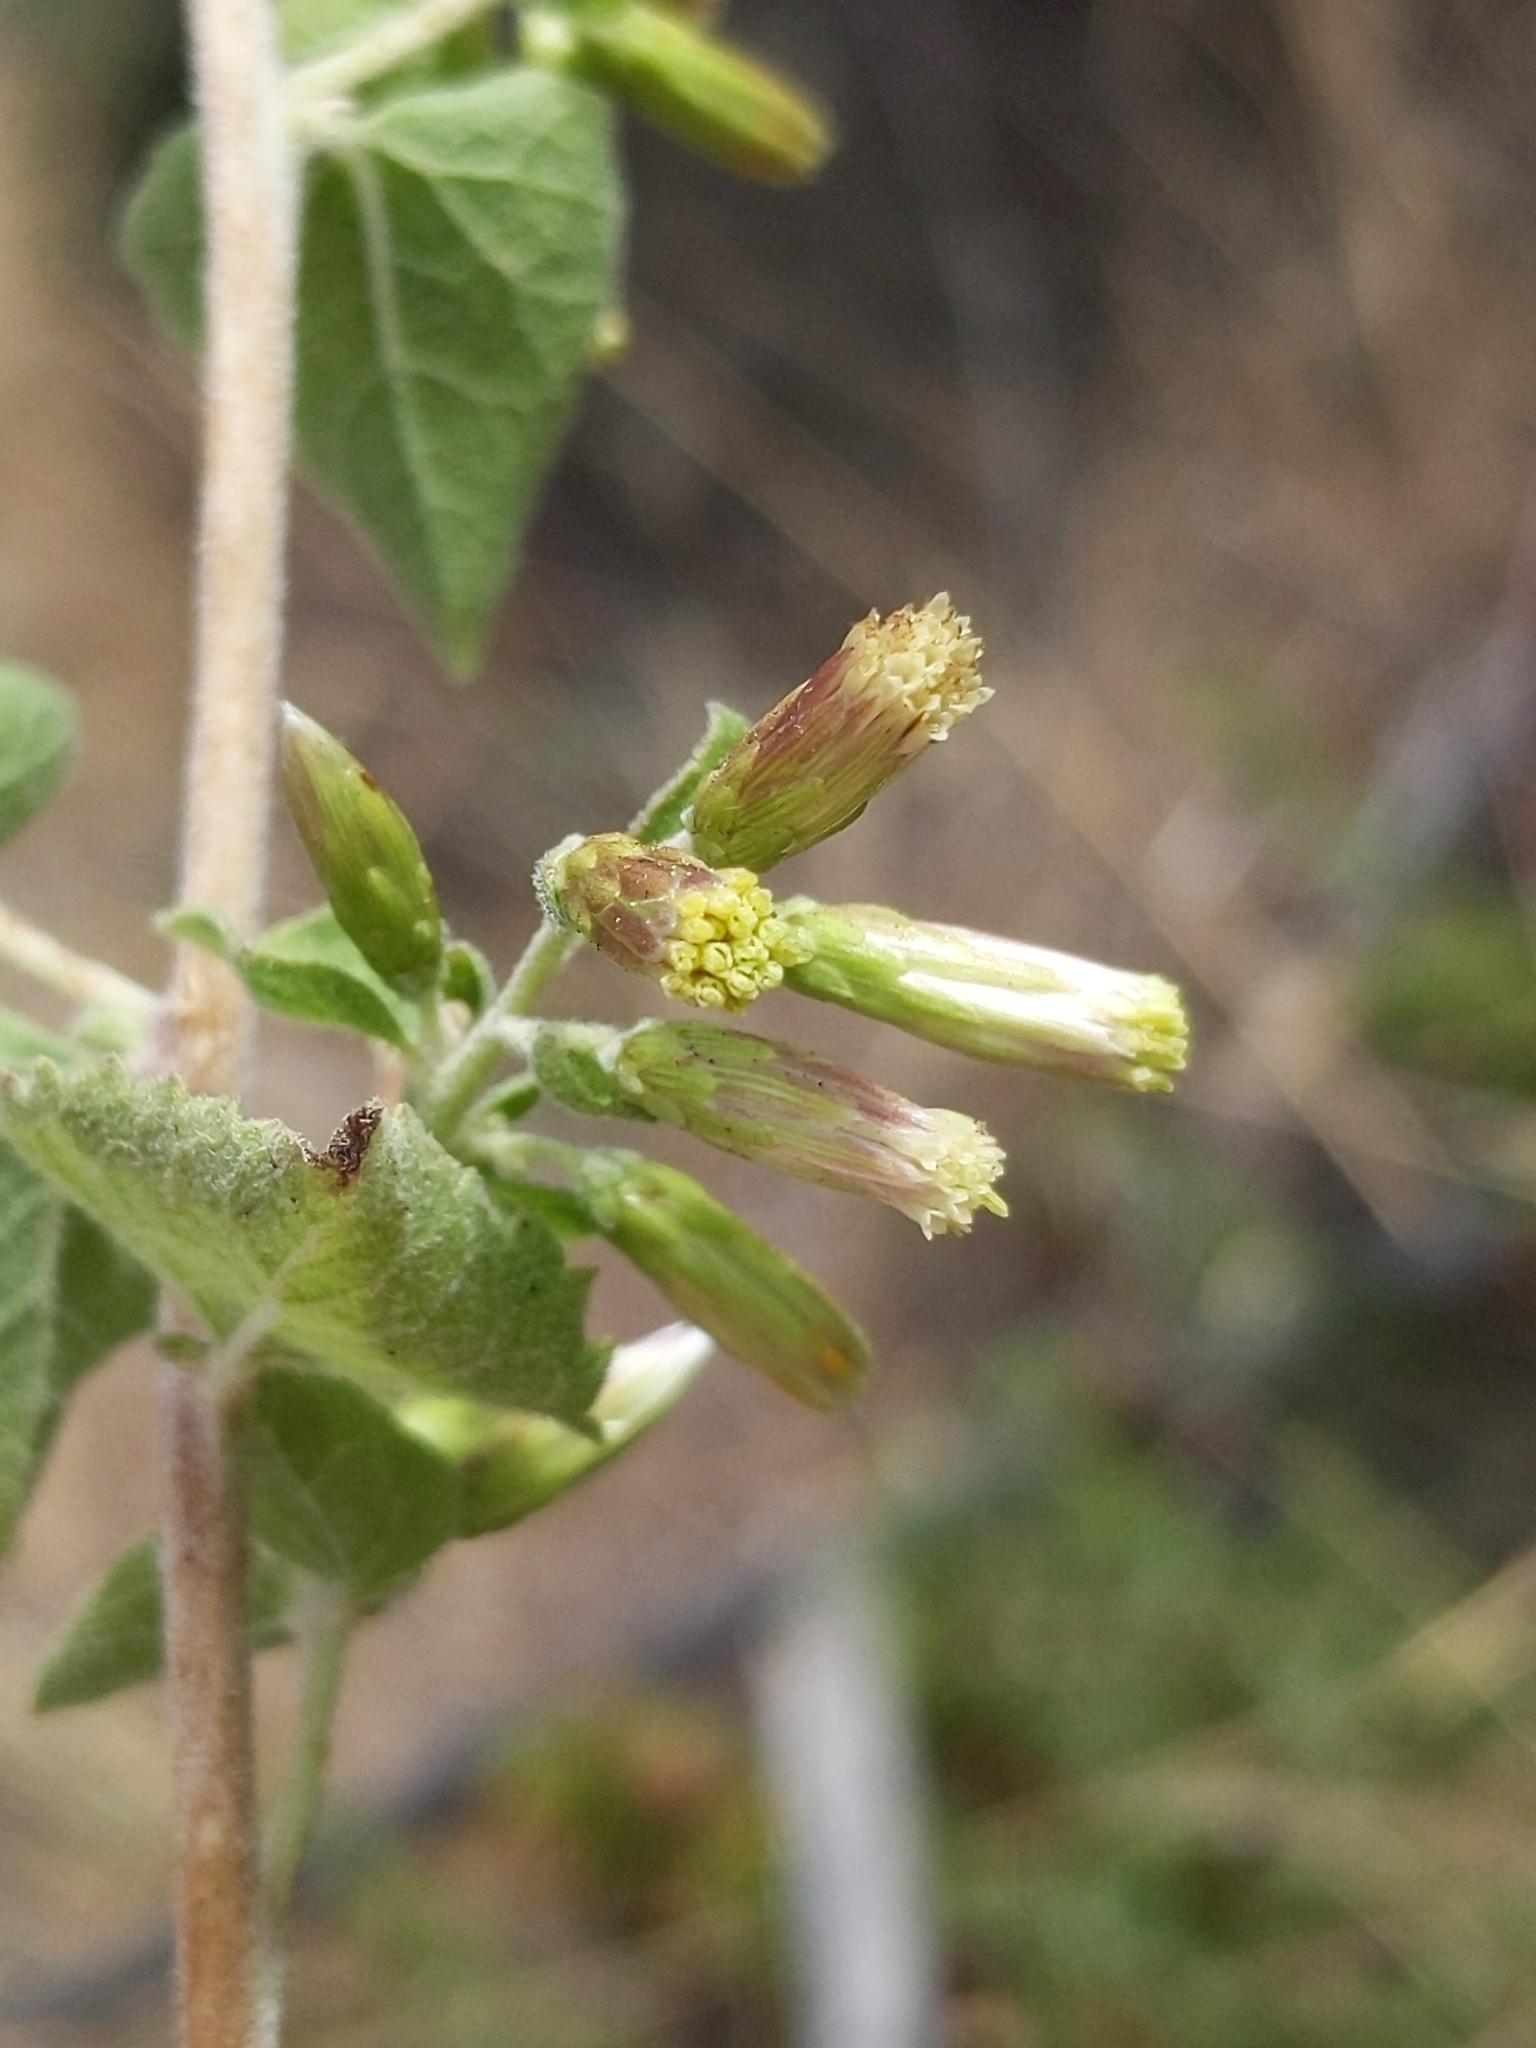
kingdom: Plantae
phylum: Tracheophyta
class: Magnoliopsida
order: Asterales
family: Asteraceae
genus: Brickellia
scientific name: Brickellia californica
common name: California brickellbush
